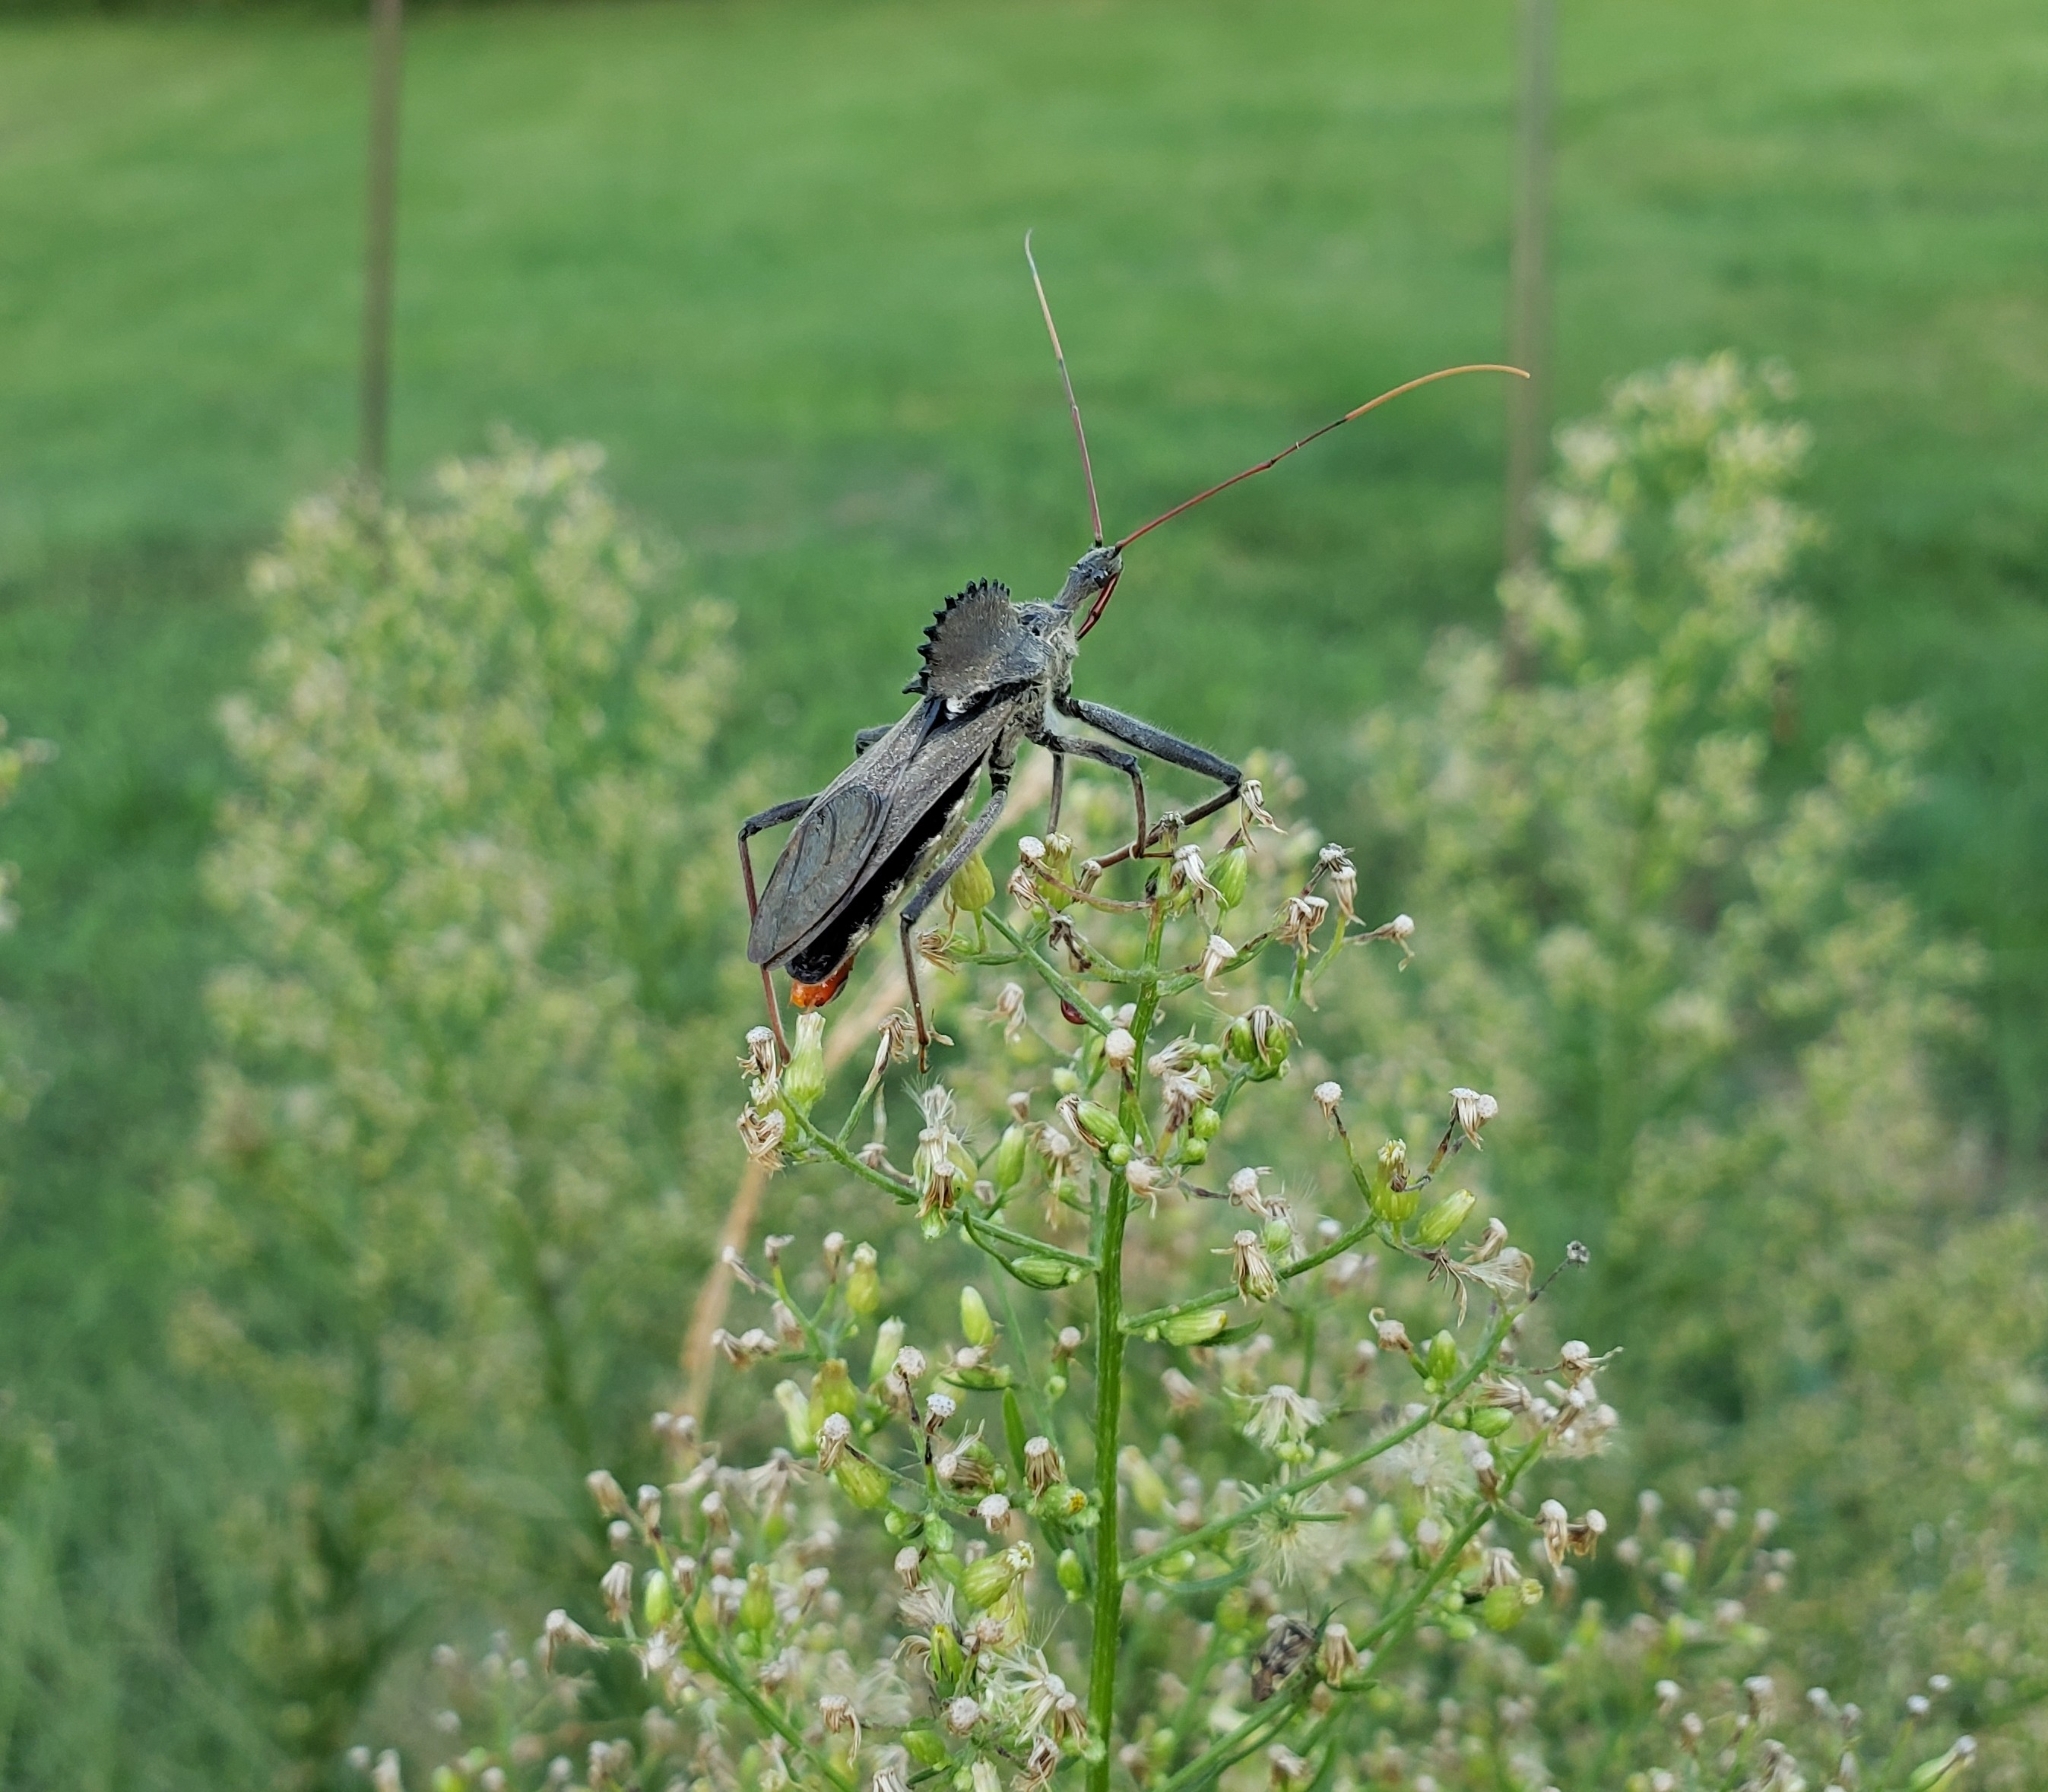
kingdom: Animalia
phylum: Arthropoda
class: Insecta
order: Hemiptera
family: Reduviidae
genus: Arilus
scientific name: Arilus cristatus
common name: North american wheel bug
